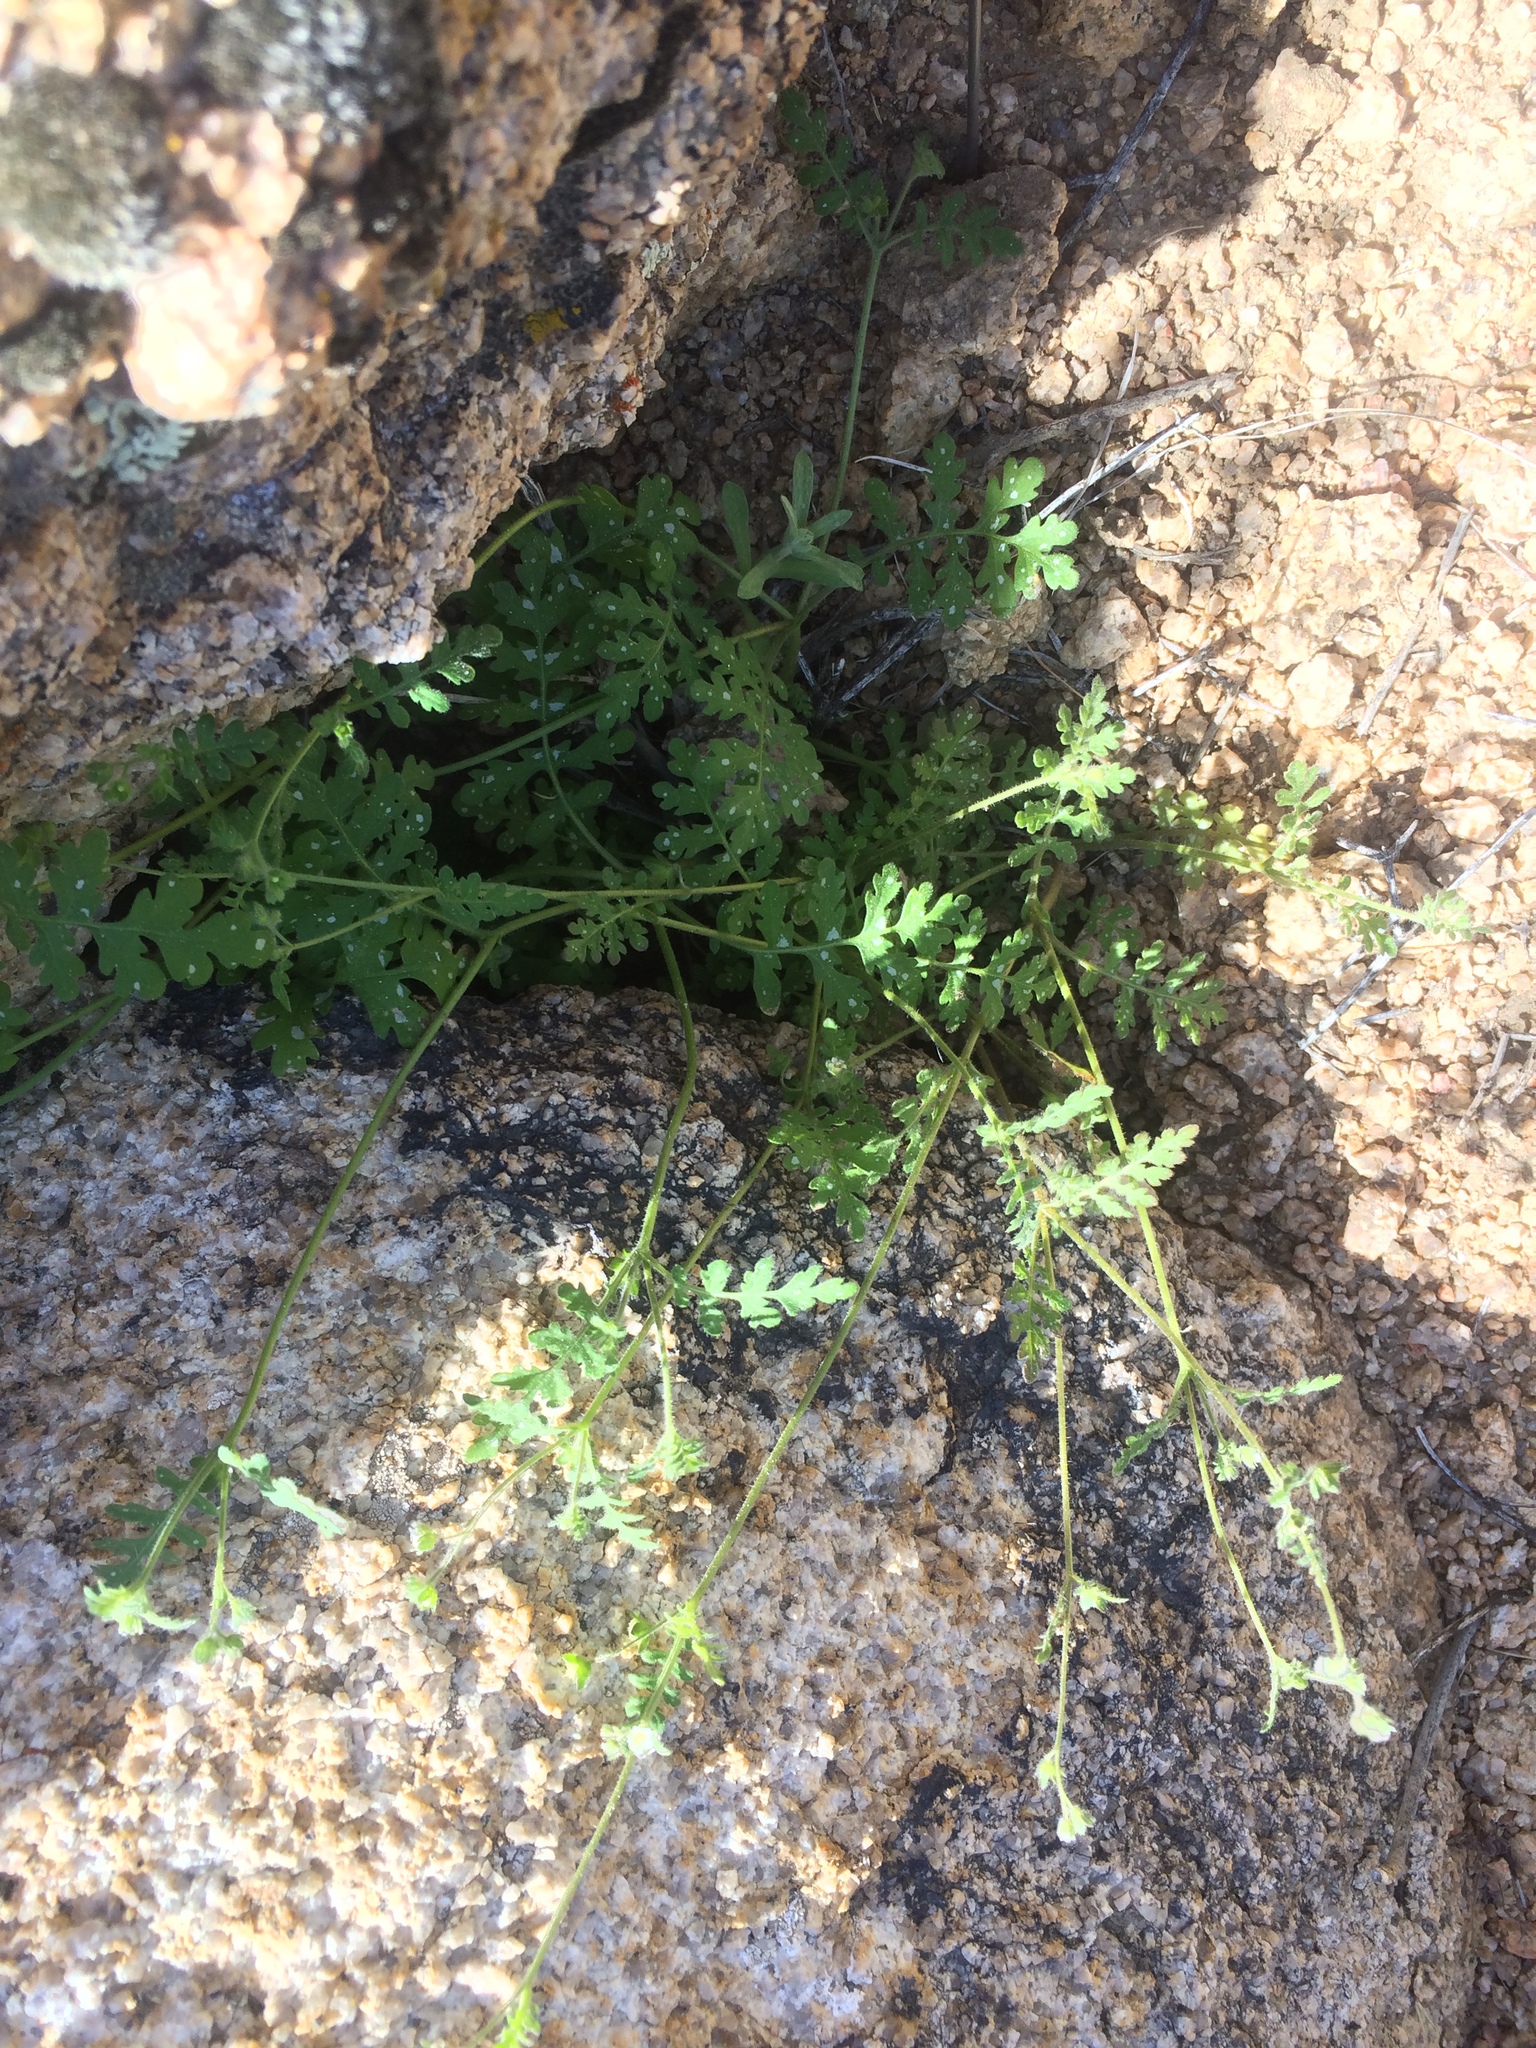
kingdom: Plantae
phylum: Tracheophyta
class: Magnoliopsida
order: Boraginales
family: Hydrophyllaceae
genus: Eucrypta
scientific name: Eucrypta chrysanthemifolia
